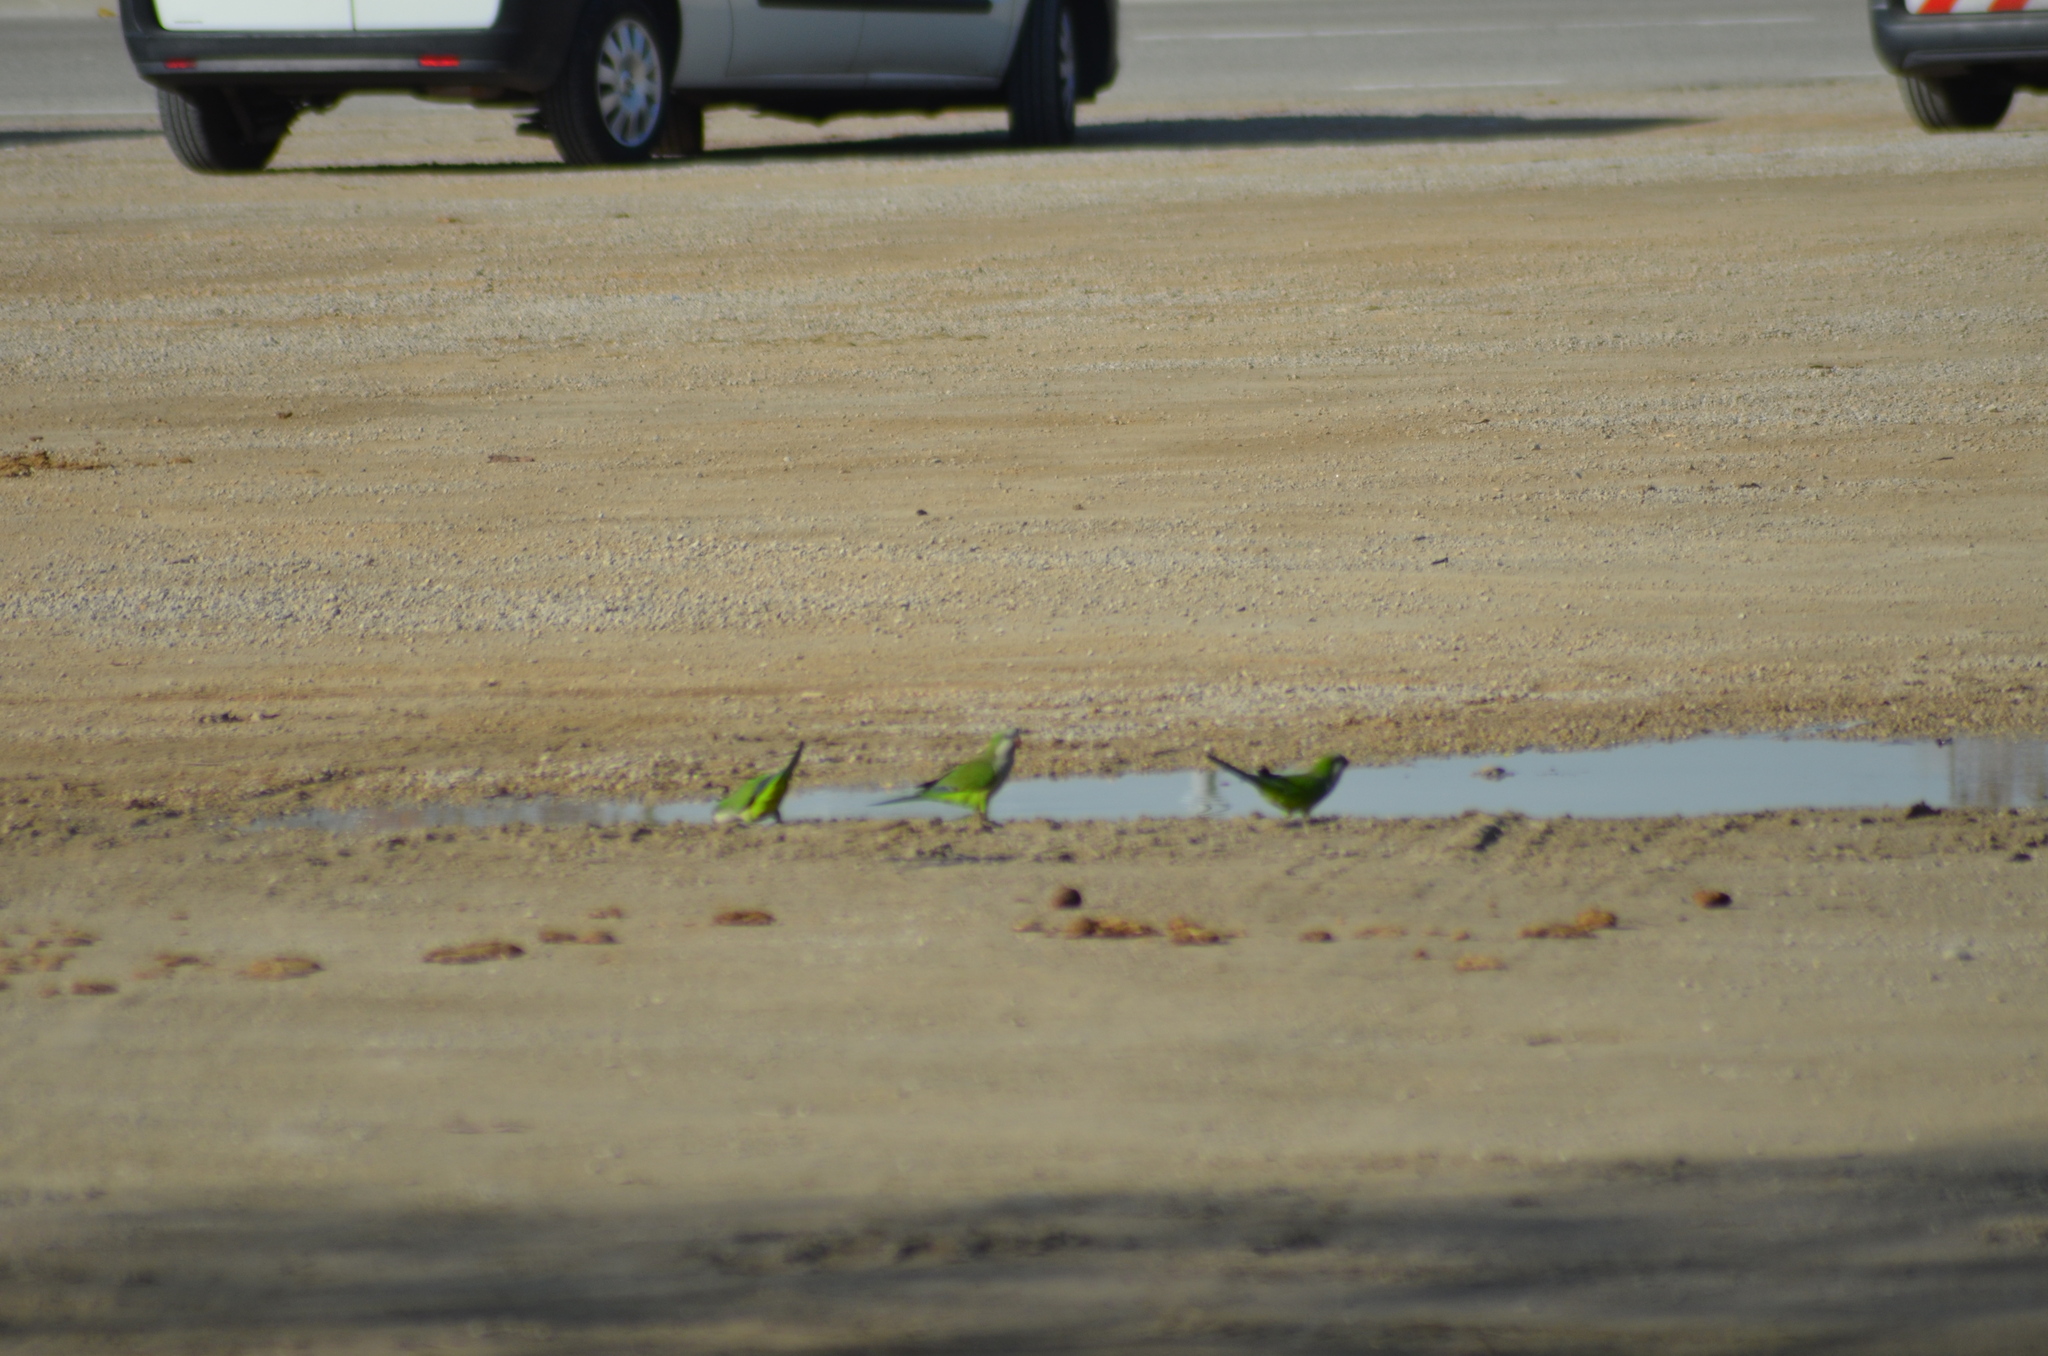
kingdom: Animalia
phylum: Chordata
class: Aves
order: Psittaciformes
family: Psittacidae
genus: Myiopsitta
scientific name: Myiopsitta monachus
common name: Monk parakeet
